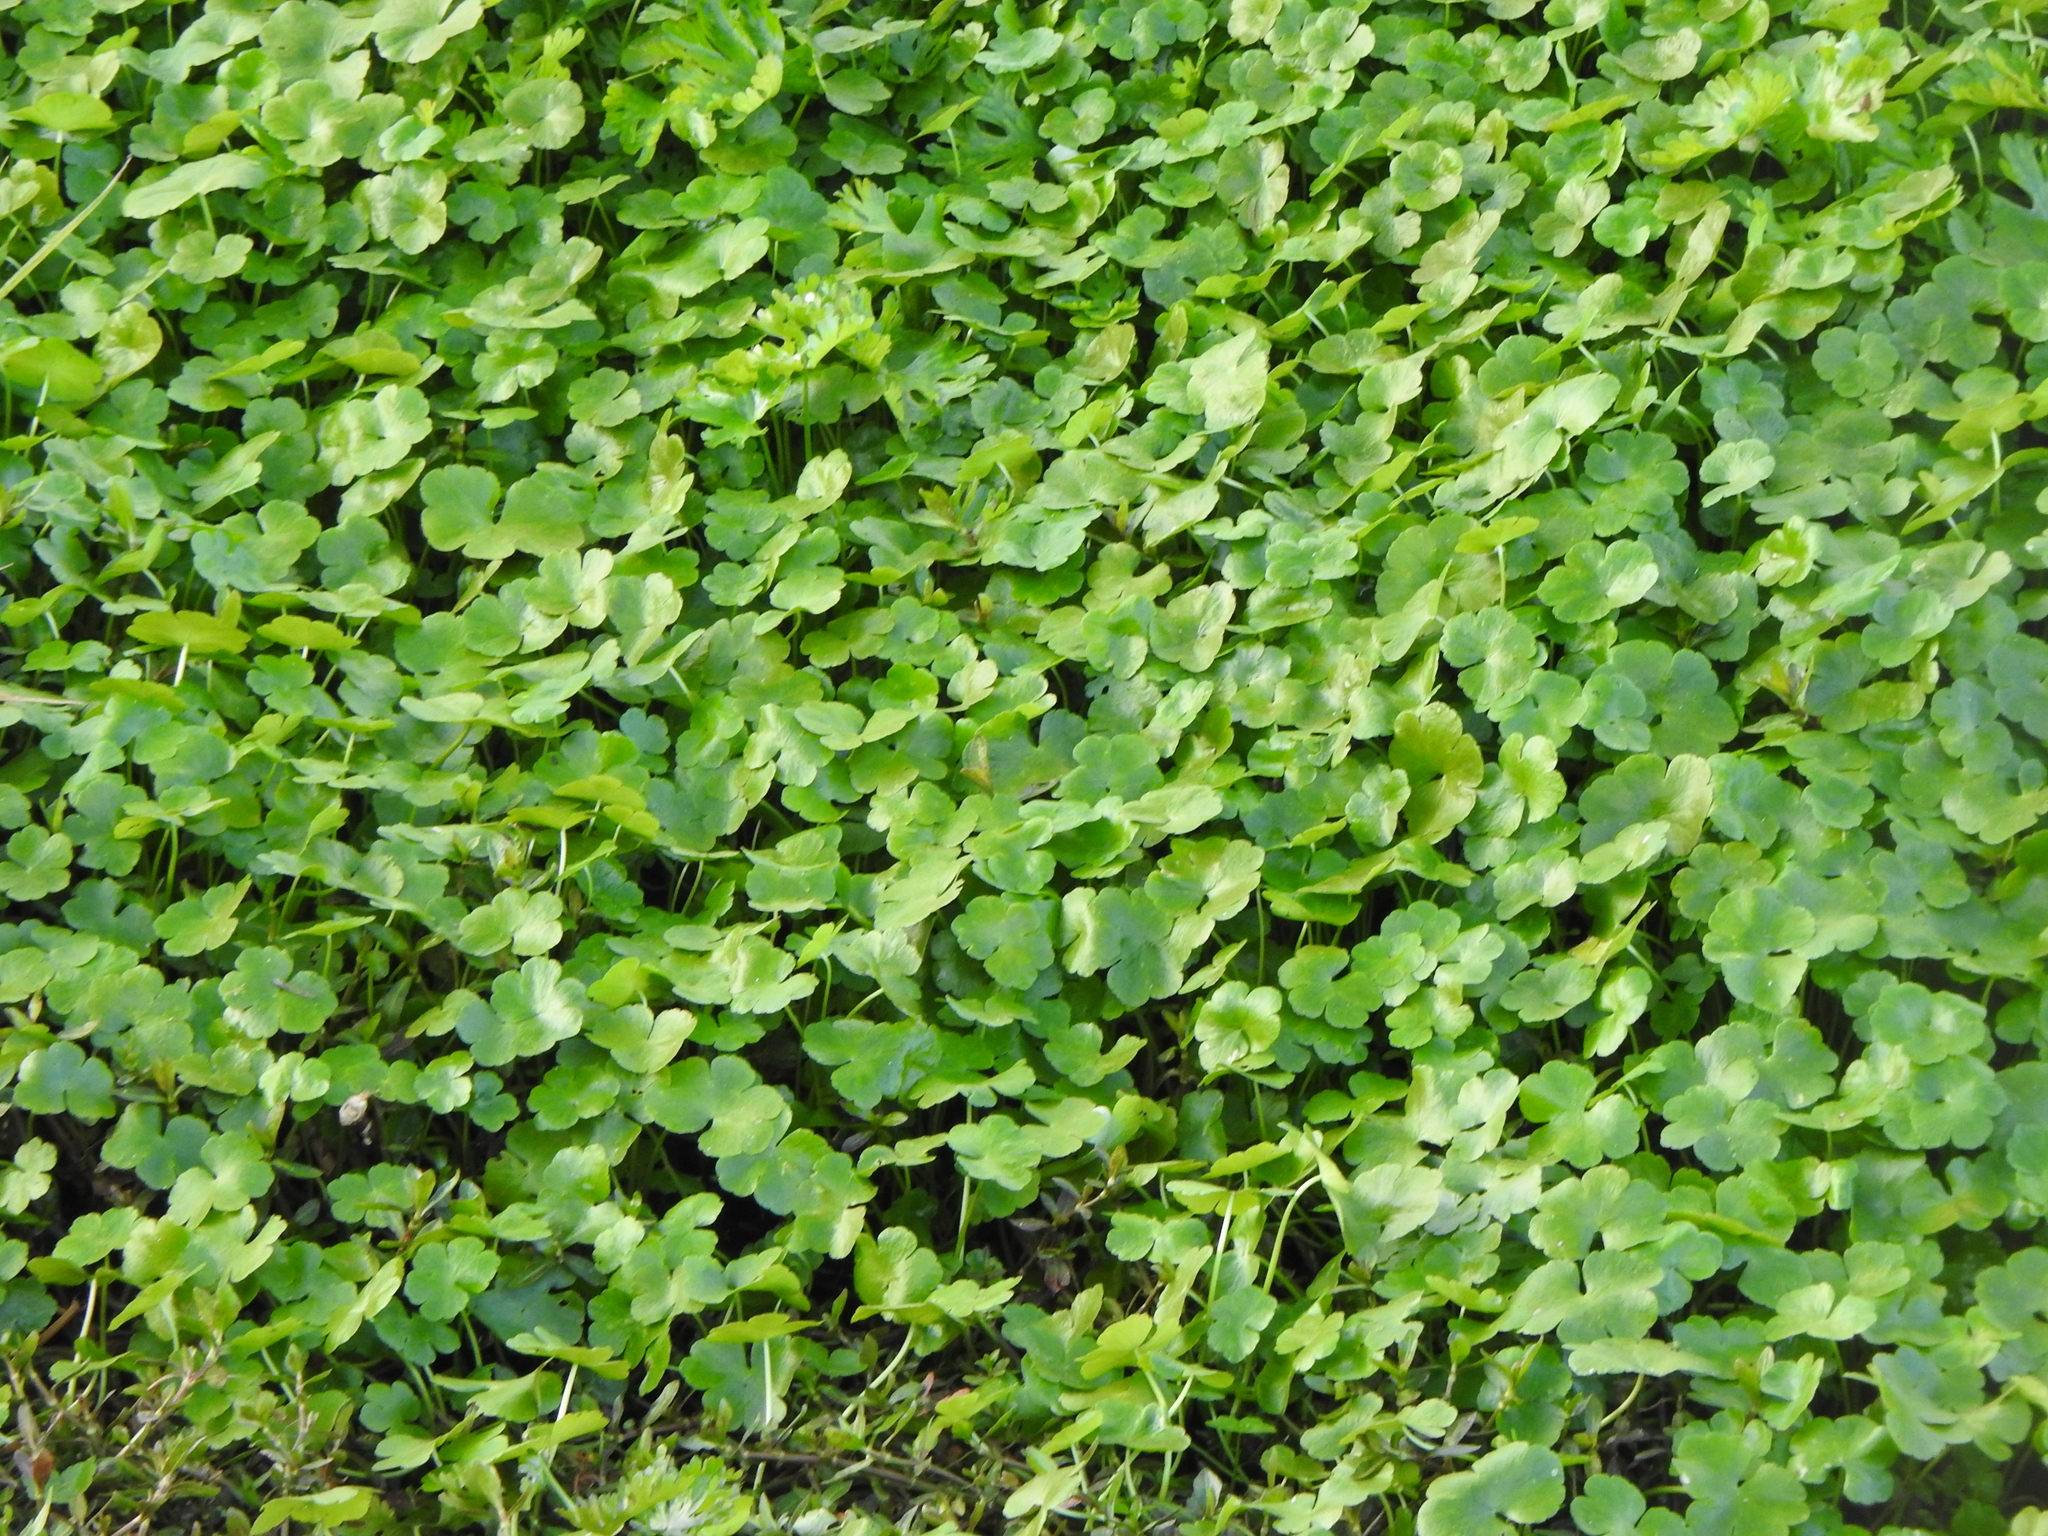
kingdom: Plantae
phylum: Tracheophyta
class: Magnoliopsida
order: Apiales
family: Araliaceae
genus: Hydrocotyle
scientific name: Hydrocotyle ranunculoides
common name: Floating pennywort
